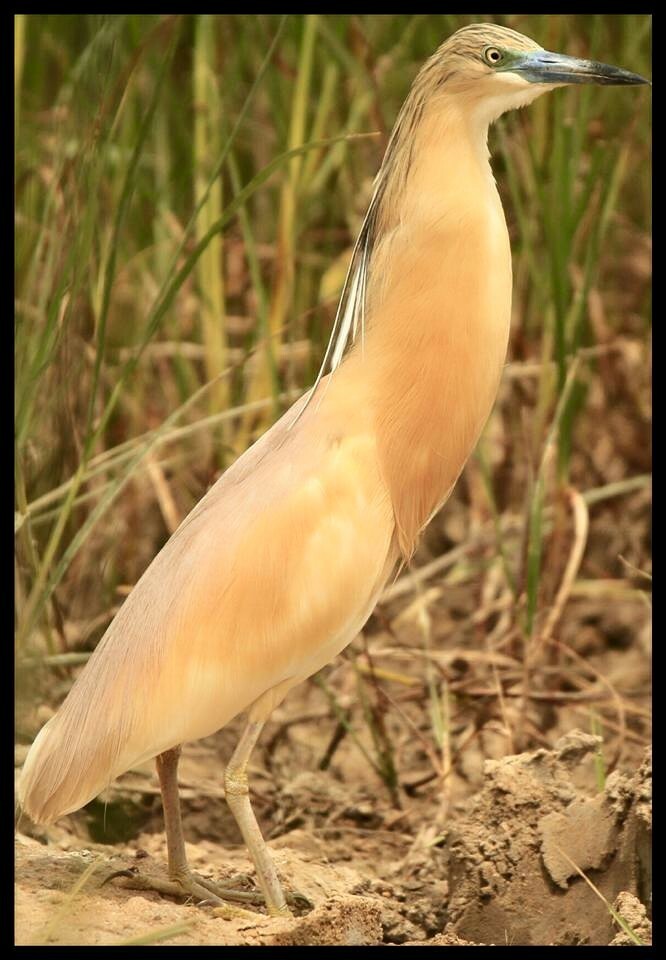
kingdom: Animalia
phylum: Chordata
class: Aves
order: Pelecaniformes
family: Ardeidae
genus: Ardeola
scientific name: Ardeola ralloides
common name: Squacco heron
